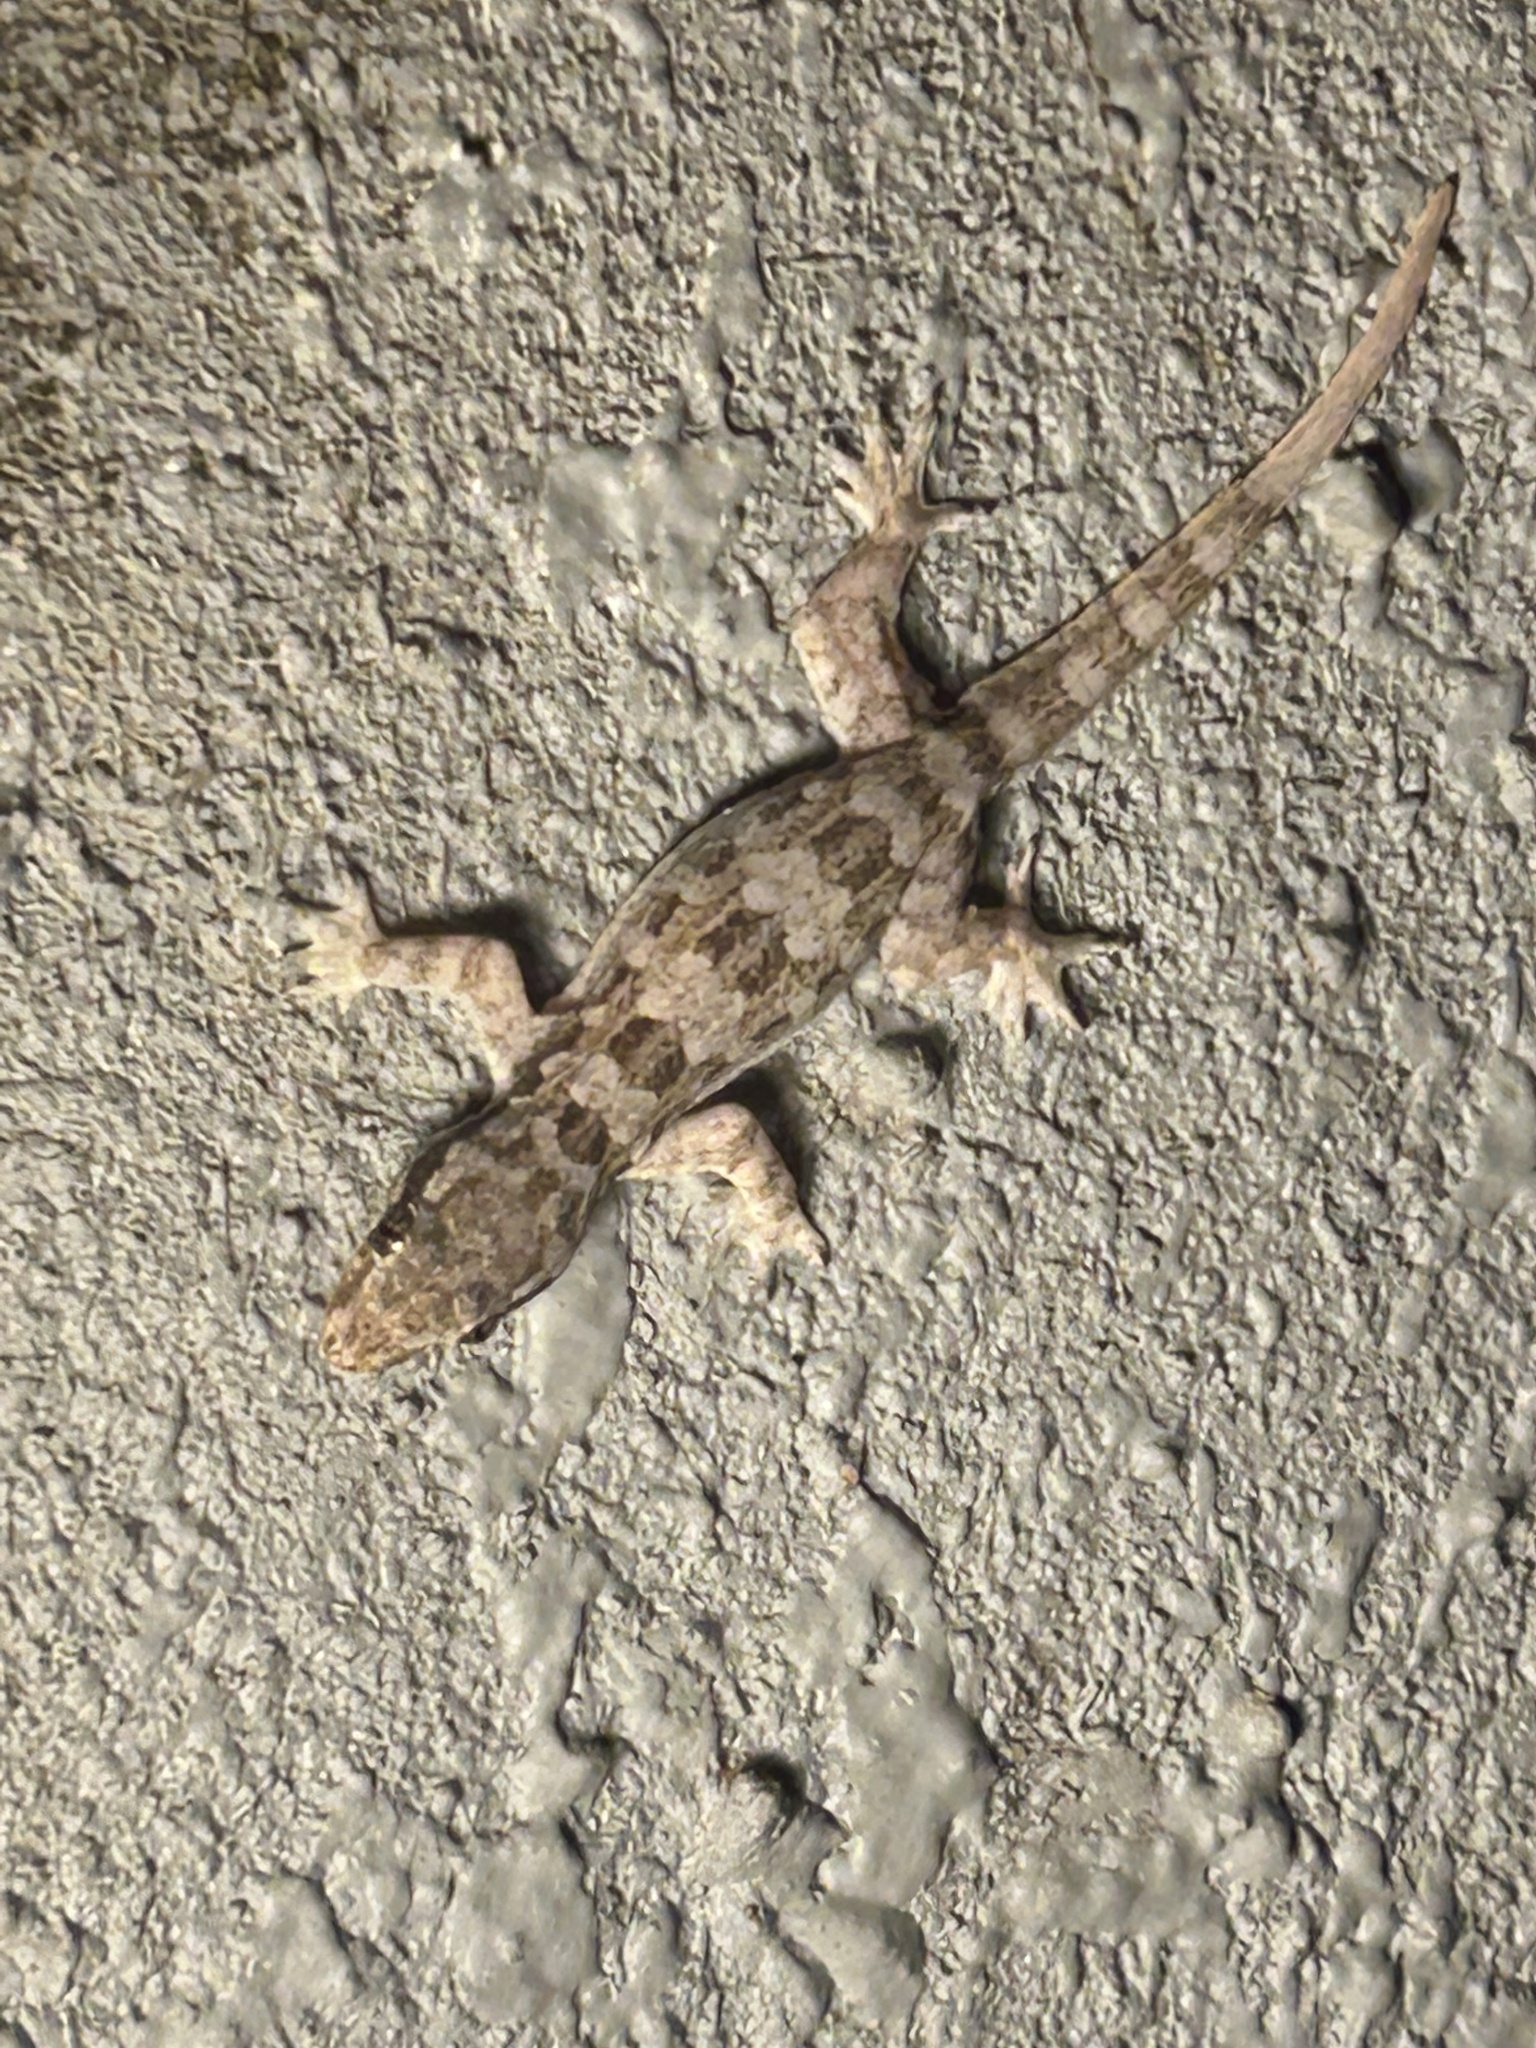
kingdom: Animalia
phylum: Chordata
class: Squamata
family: Gekkonidae
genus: Hemidactylus
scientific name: Hemidactylus platyurus
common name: Flat-tailed house gecko
